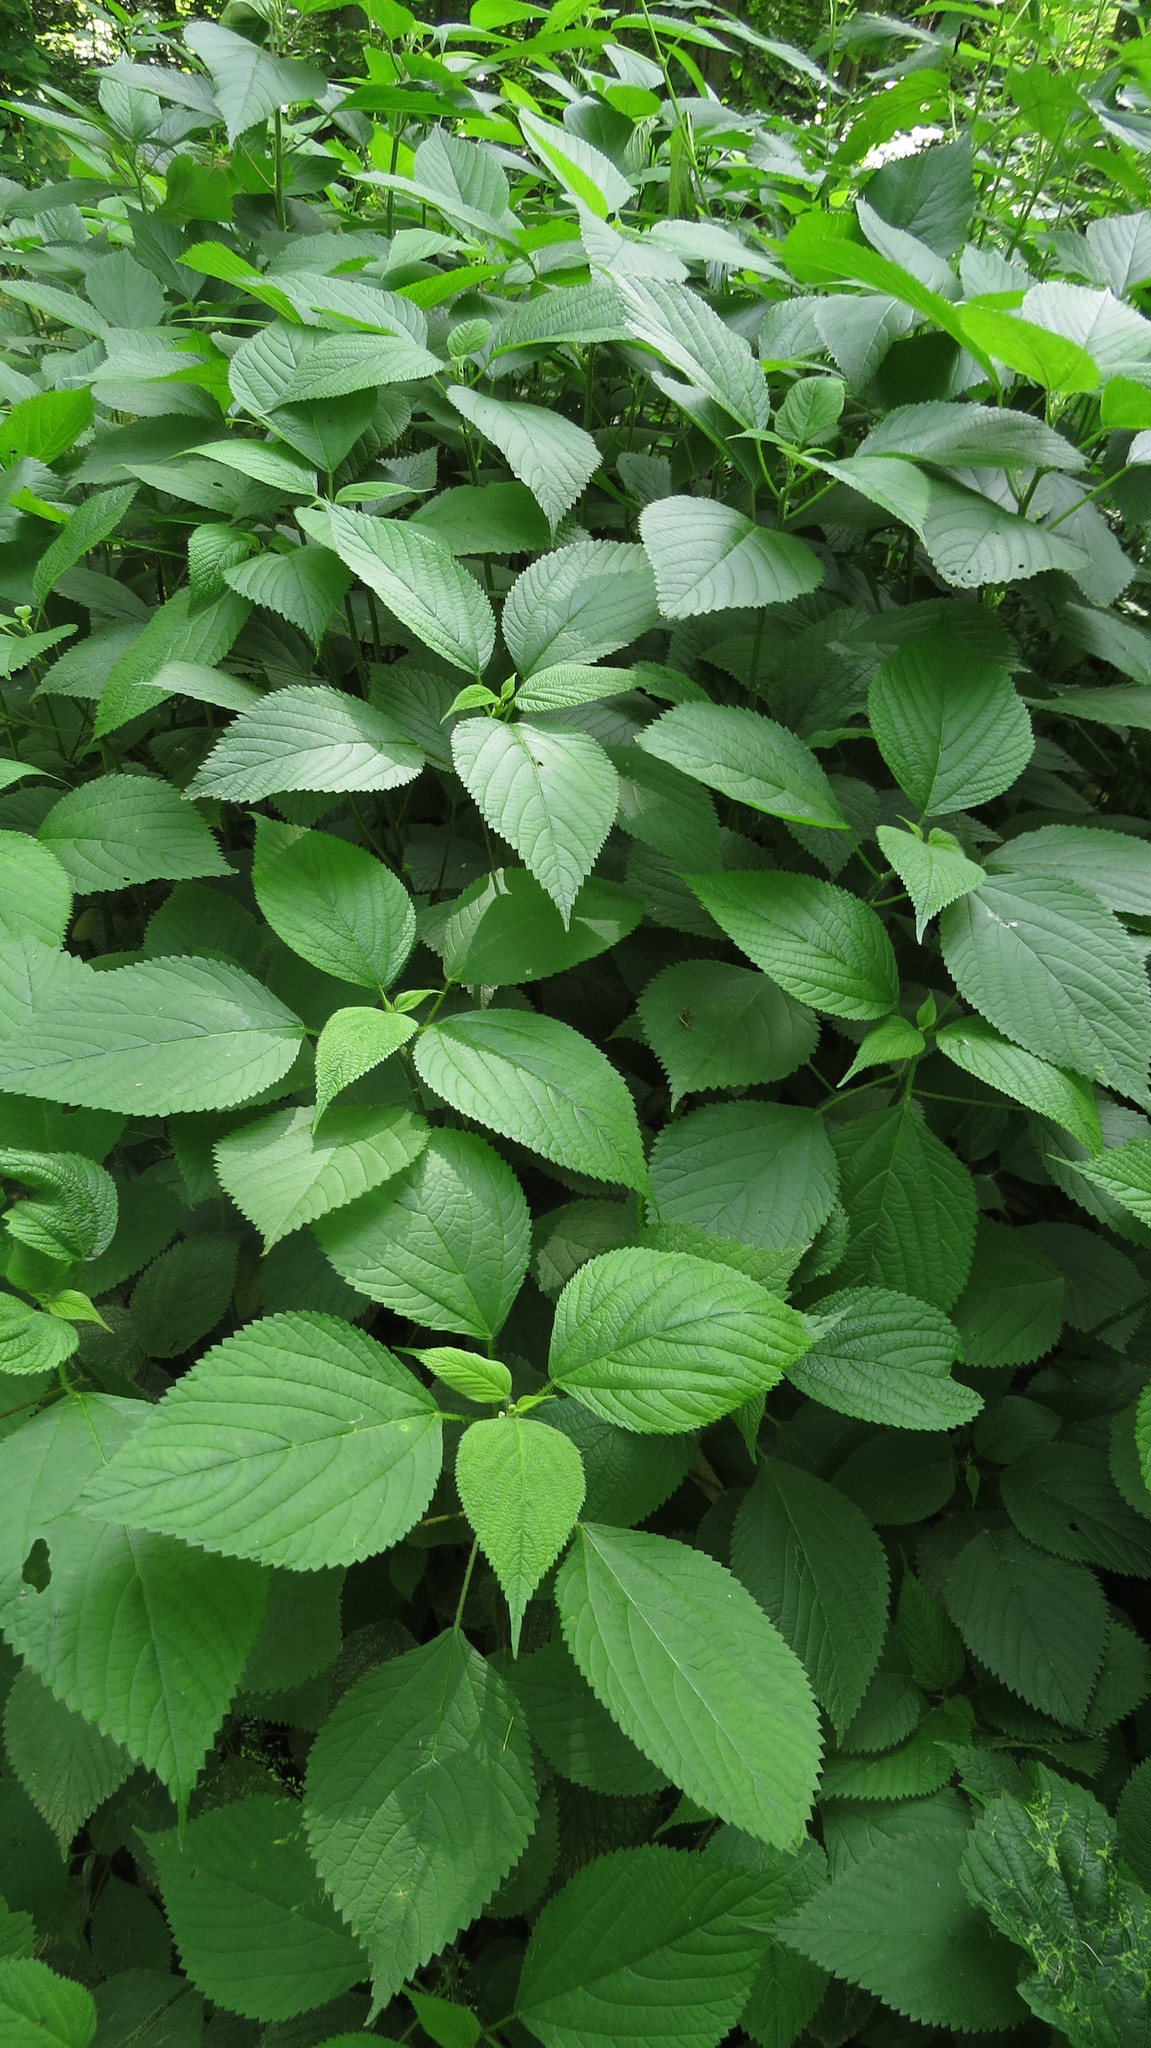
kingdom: Plantae
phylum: Tracheophyta
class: Magnoliopsida
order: Rosales
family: Urticaceae
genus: Laportea
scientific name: Laportea canadensis
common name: Canada nettle
